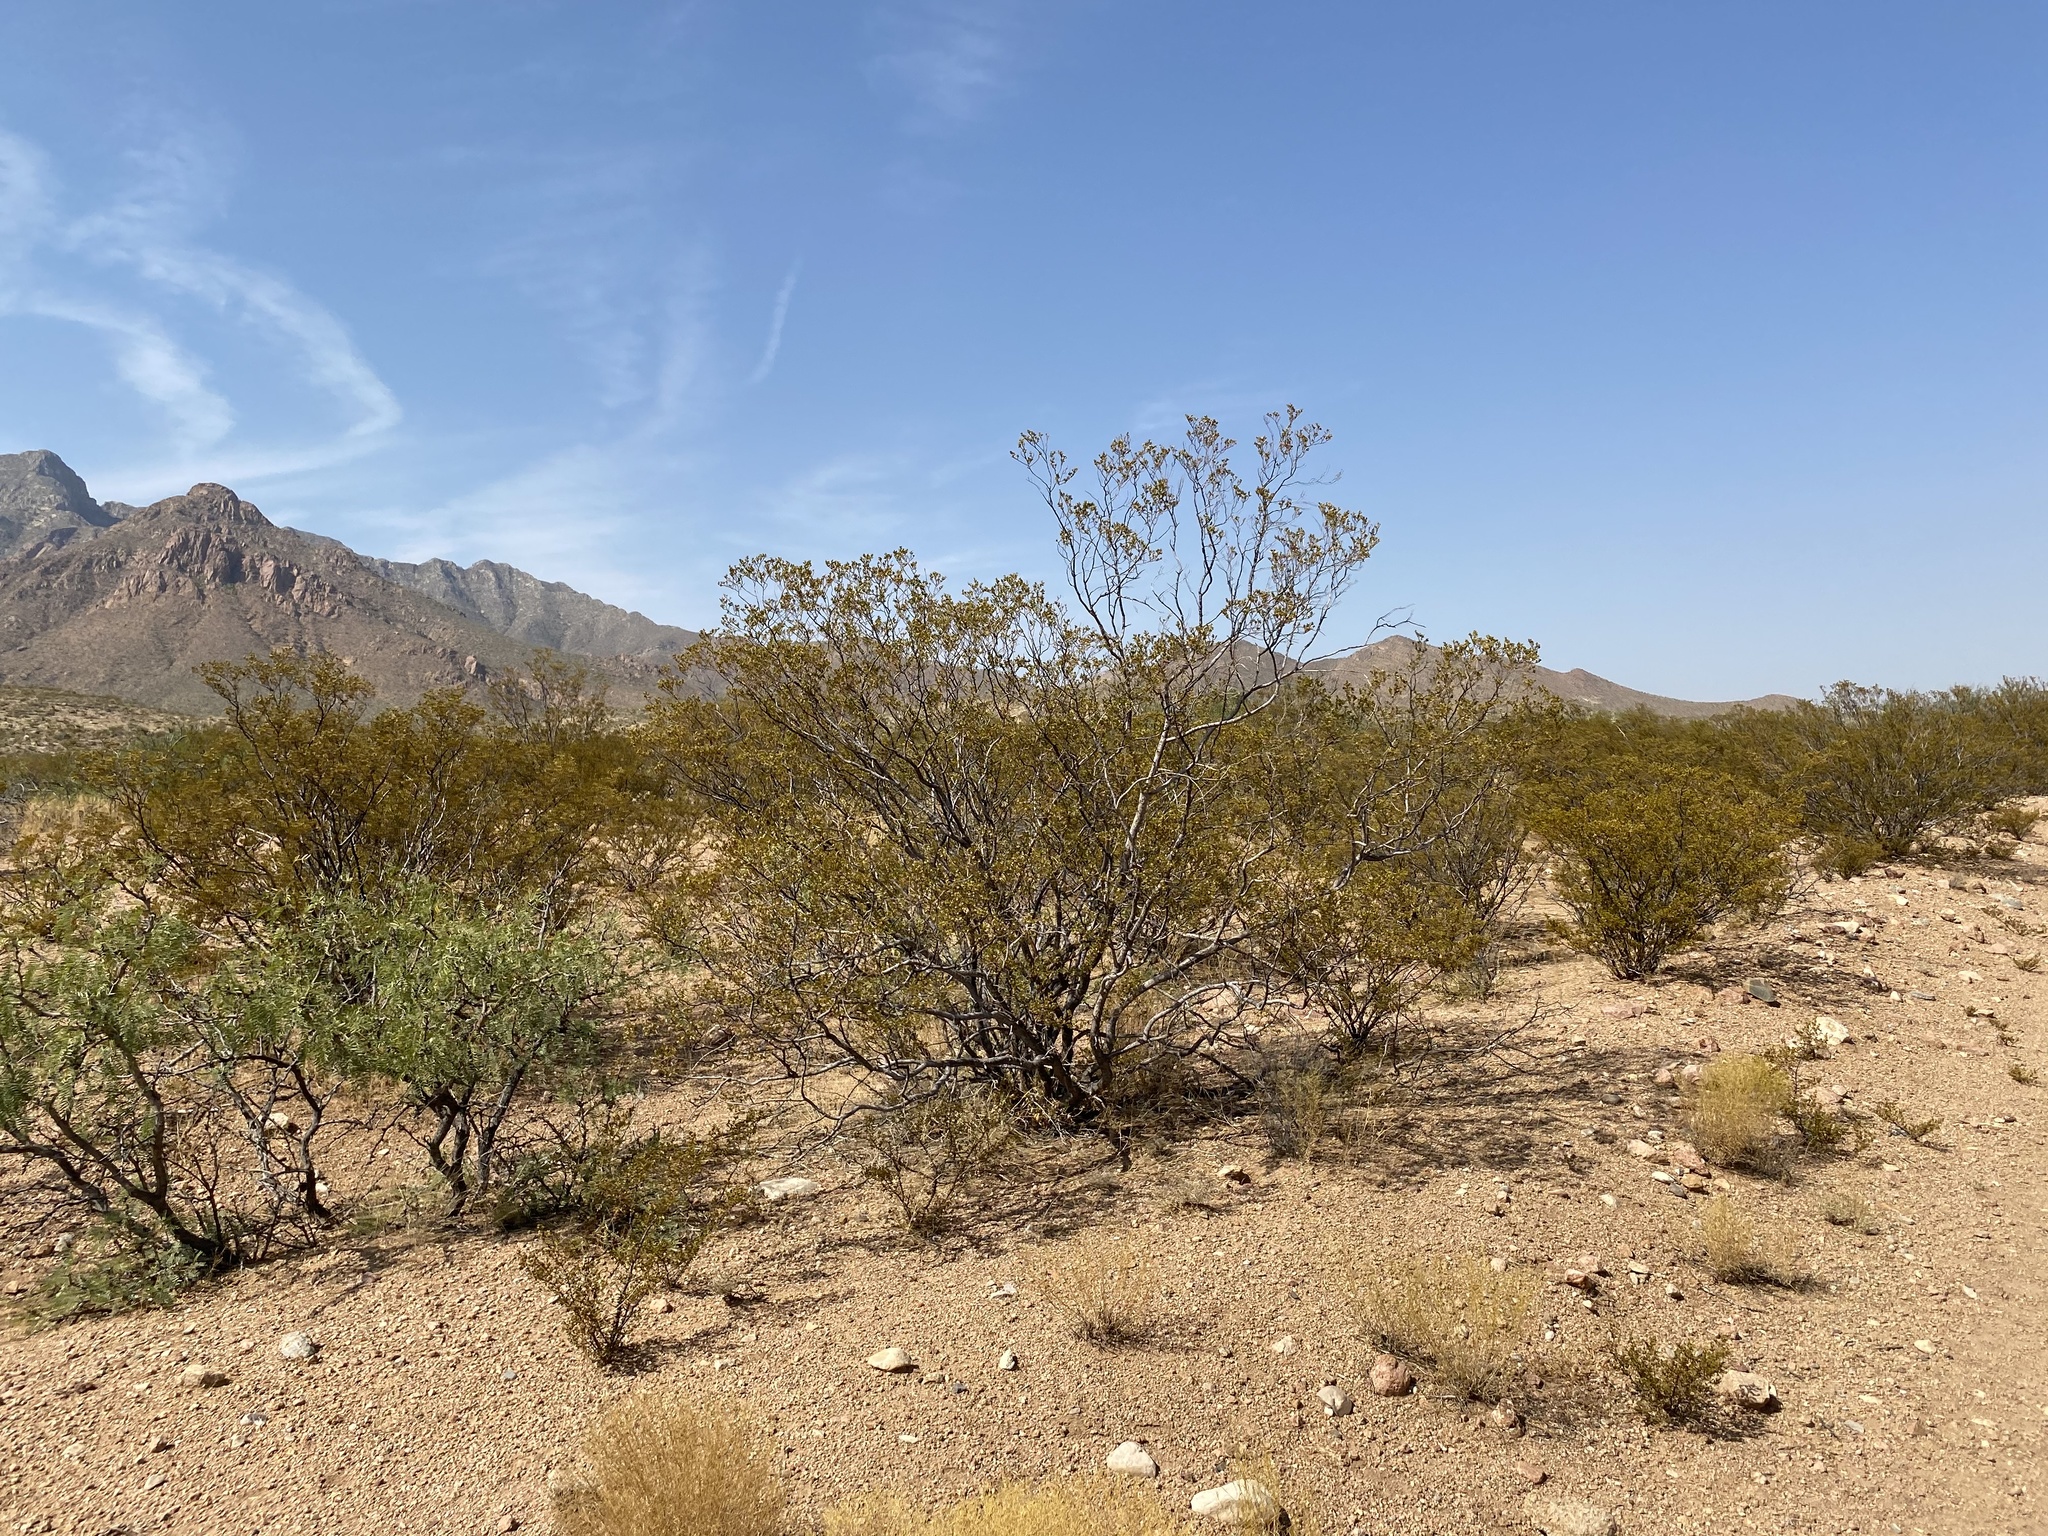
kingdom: Plantae
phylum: Tracheophyta
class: Magnoliopsida
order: Zygophyllales
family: Zygophyllaceae
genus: Larrea
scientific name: Larrea tridentata
